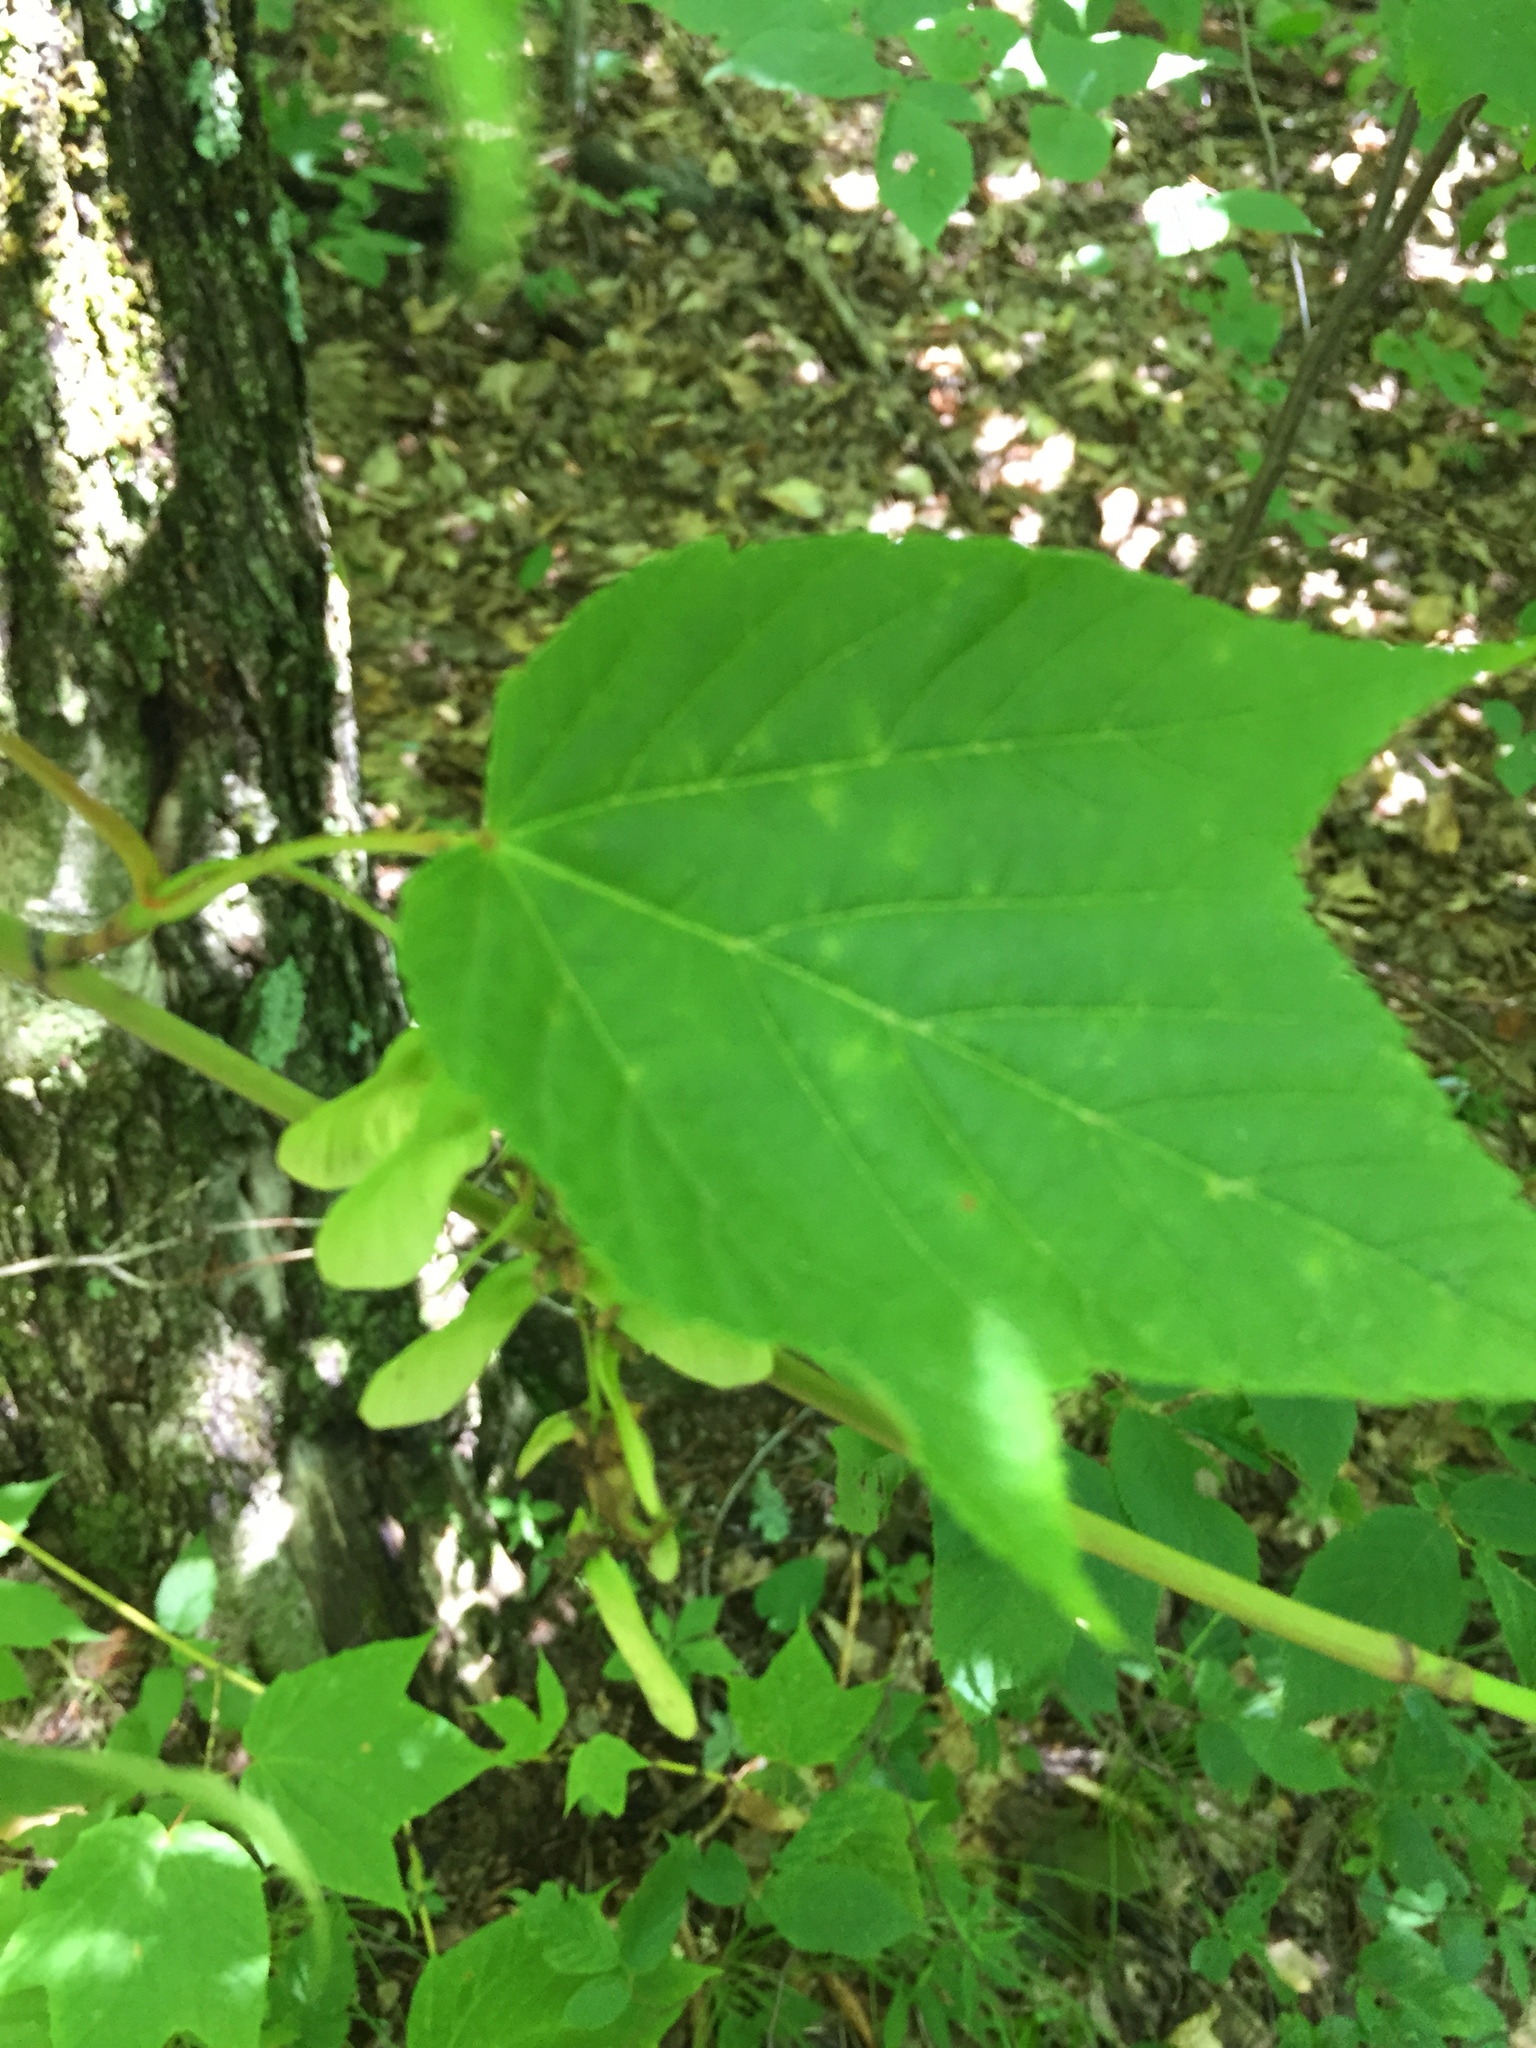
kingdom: Plantae
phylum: Tracheophyta
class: Magnoliopsida
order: Sapindales
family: Sapindaceae
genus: Acer
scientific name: Acer pensylvanicum
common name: Moosewood
